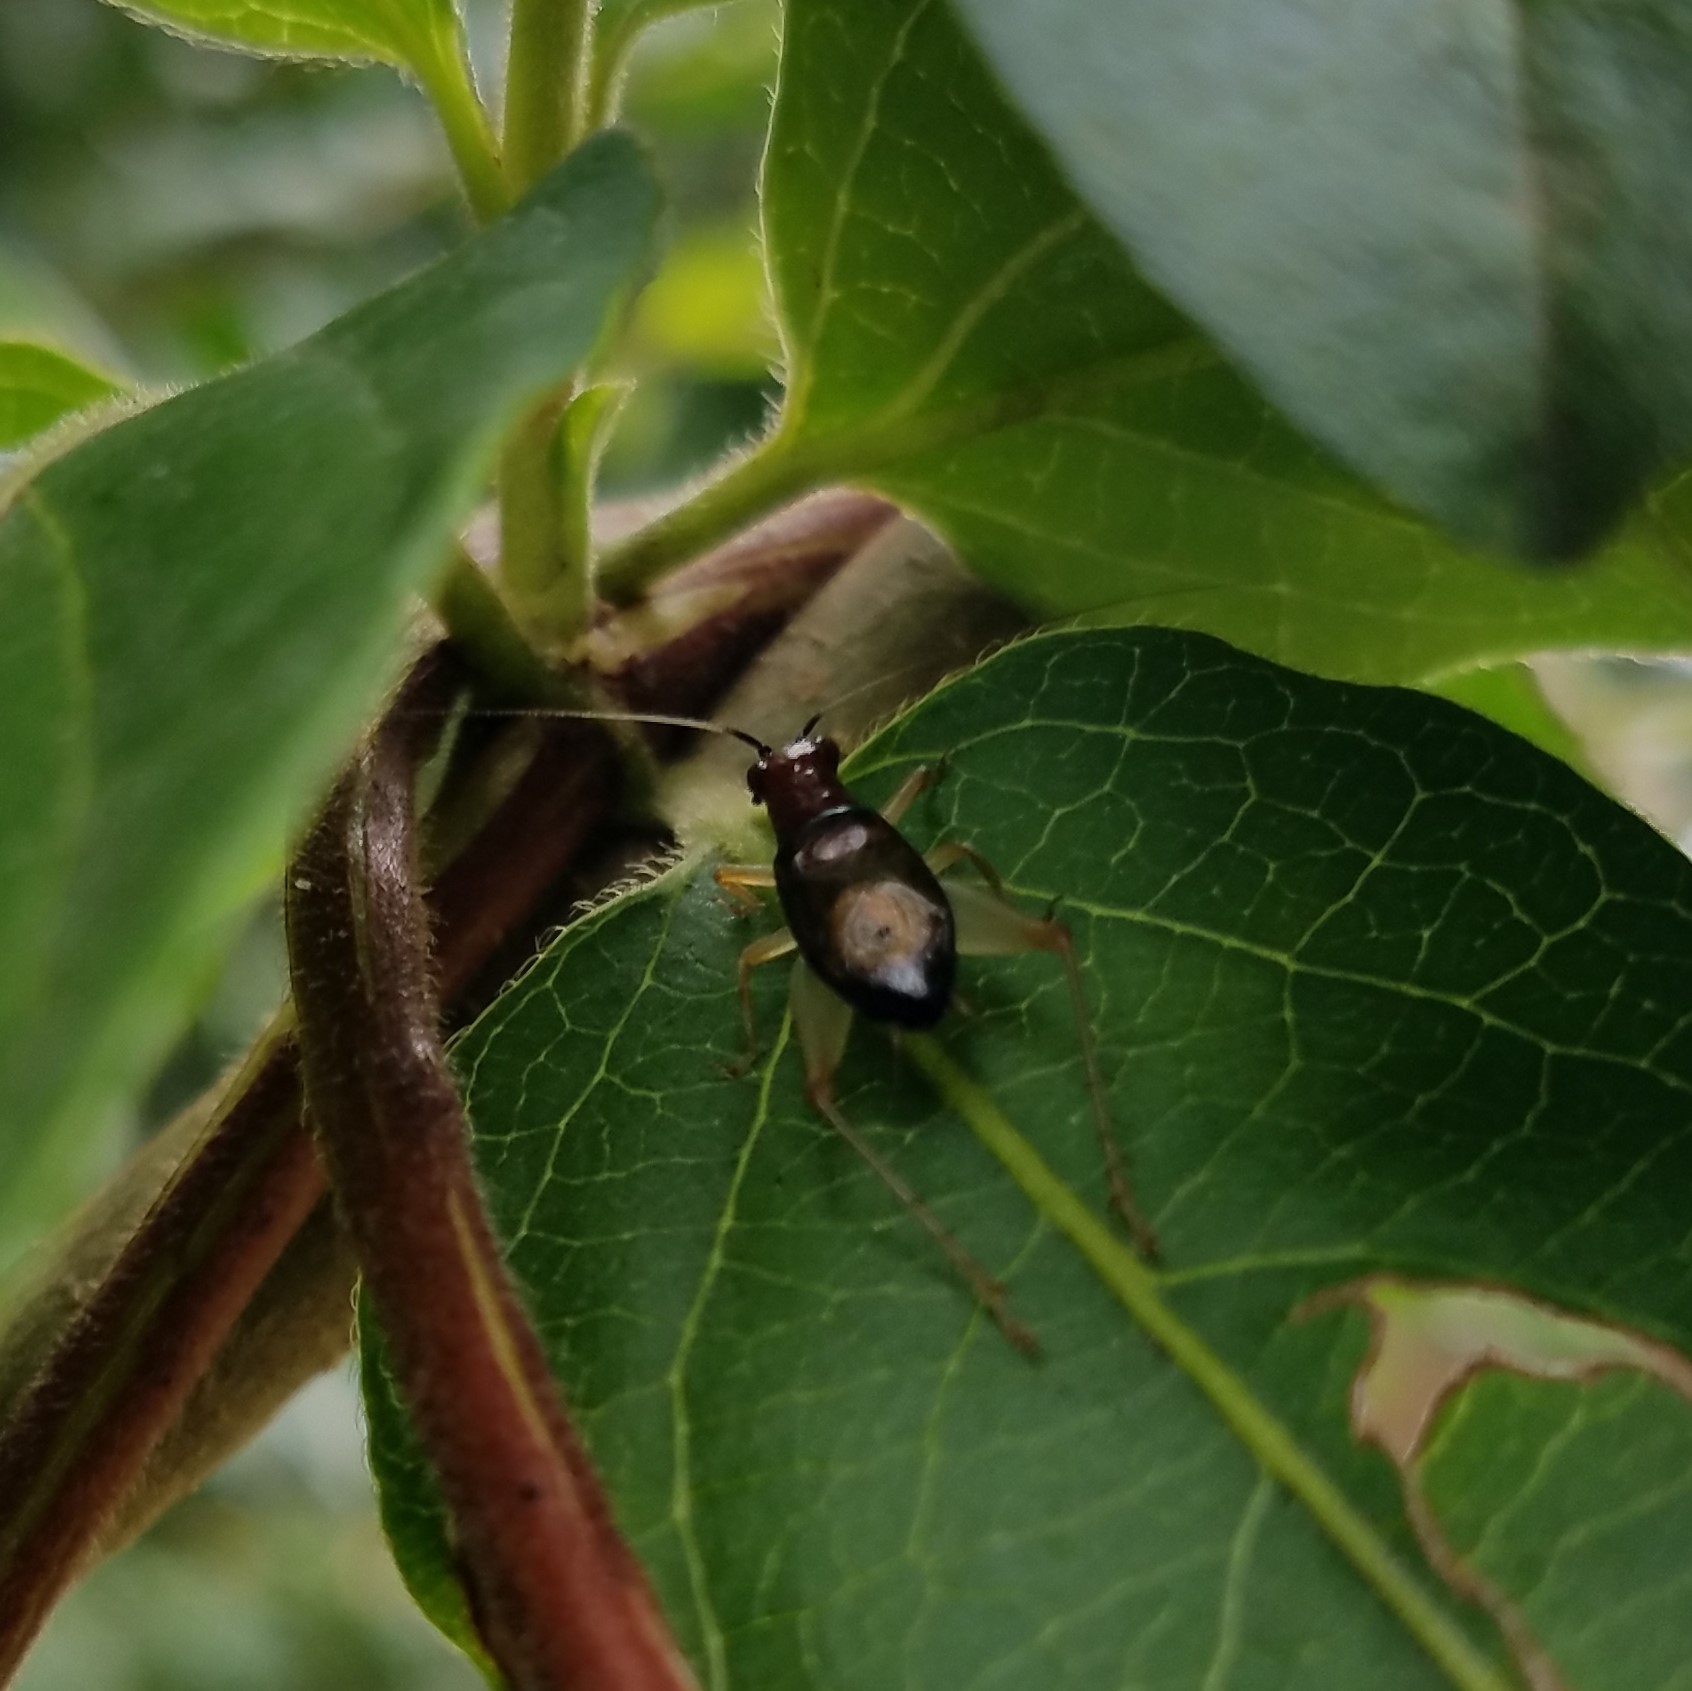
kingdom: Animalia
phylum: Arthropoda
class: Insecta
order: Orthoptera
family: Trigonidiidae
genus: Phyllopalpus
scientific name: Phyllopalpus pulchellus
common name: Handsome trig
